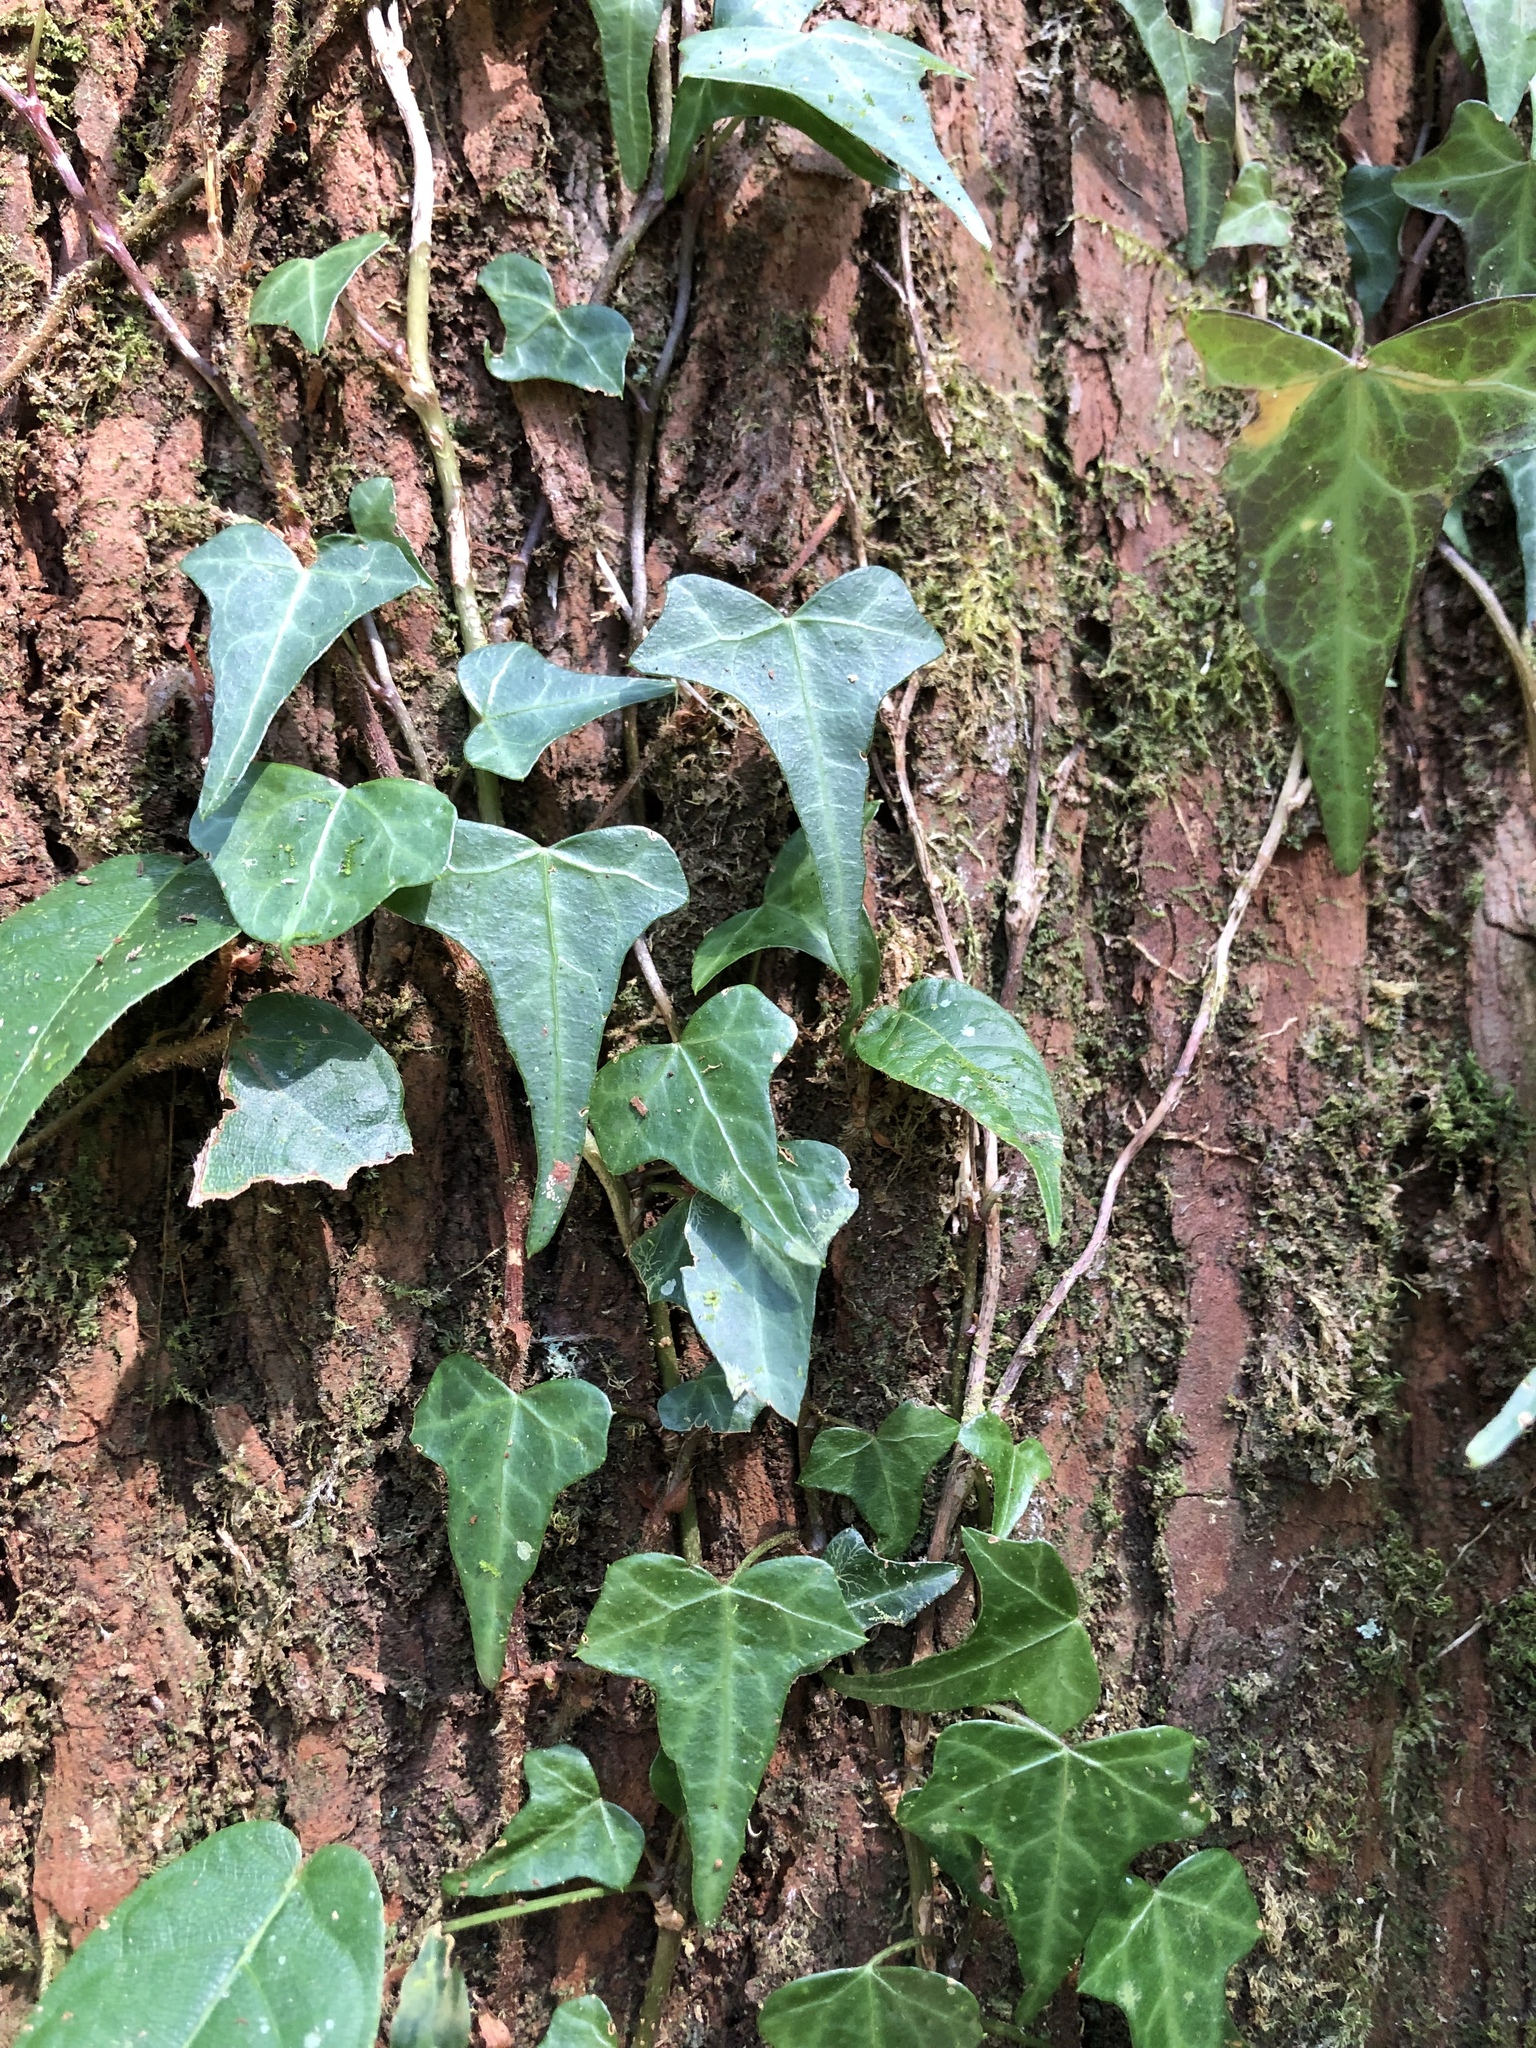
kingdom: Plantae
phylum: Tracheophyta
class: Magnoliopsida
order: Apiales
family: Araliaceae
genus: Hedera
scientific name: Hedera rhombea
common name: Japanese ivy
